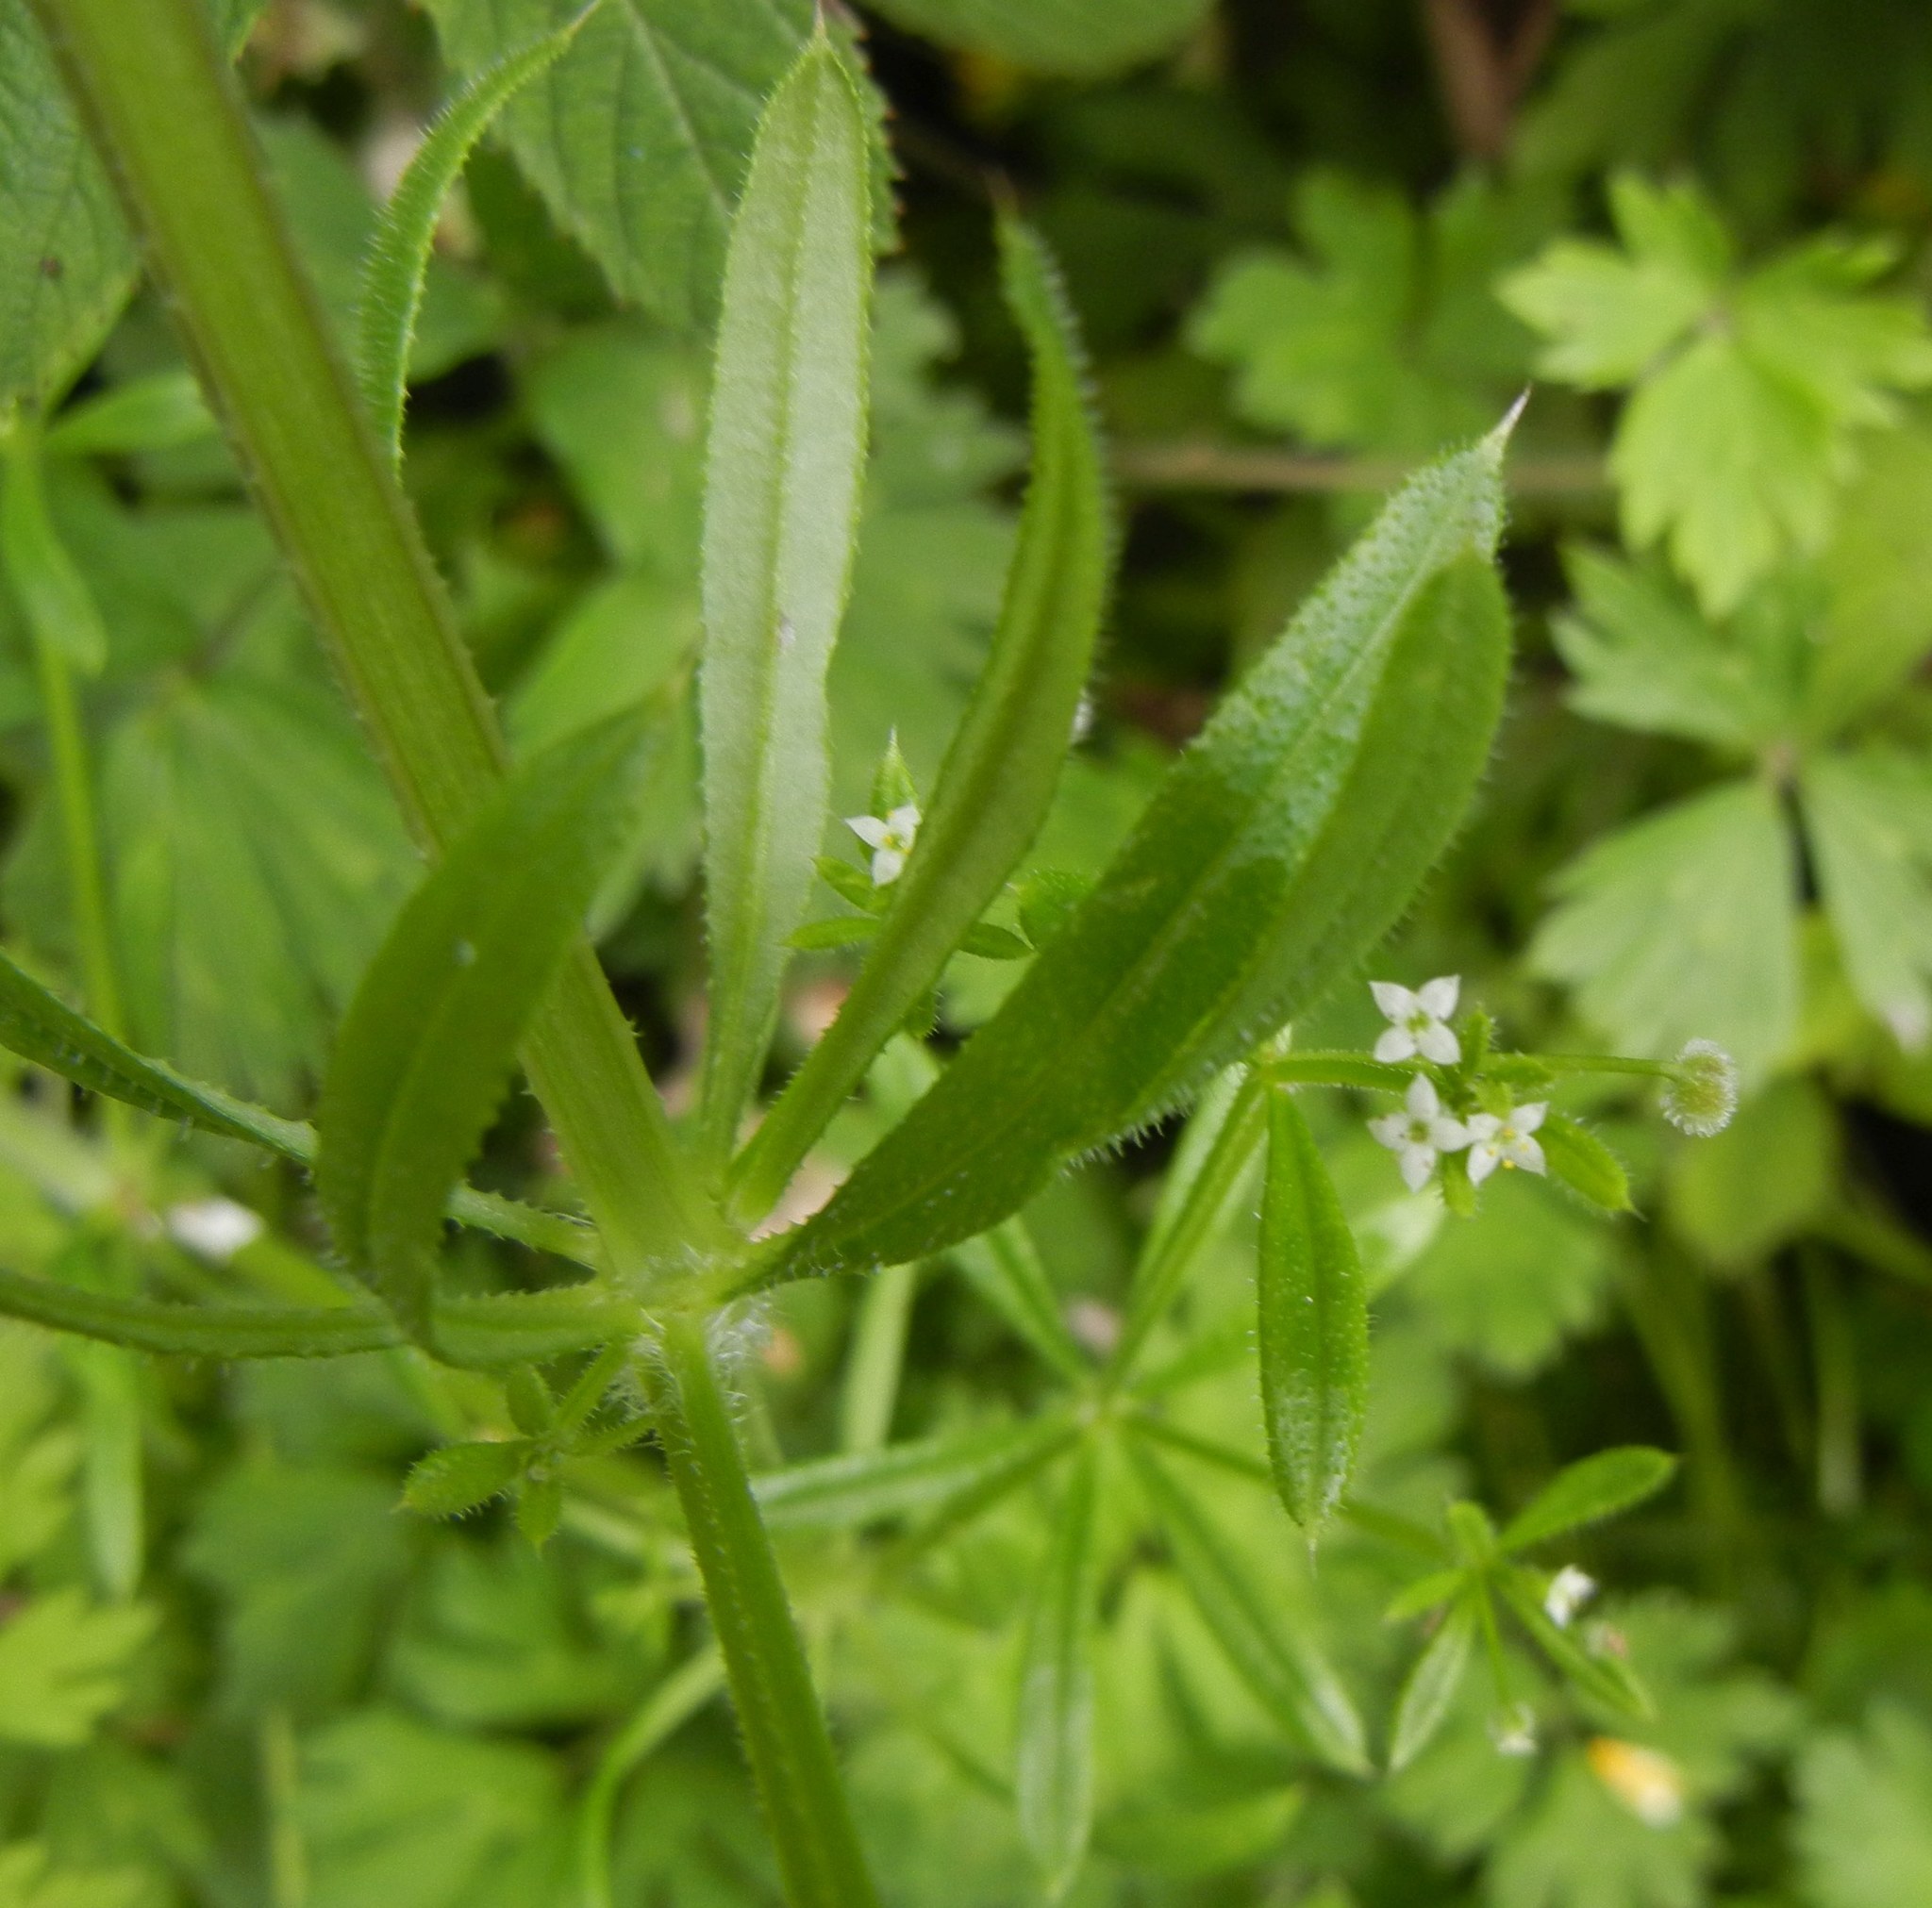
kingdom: Plantae
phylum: Tracheophyta
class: Magnoliopsida
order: Gentianales
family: Rubiaceae
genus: Galium
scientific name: Galium aparine
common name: Cleavers
